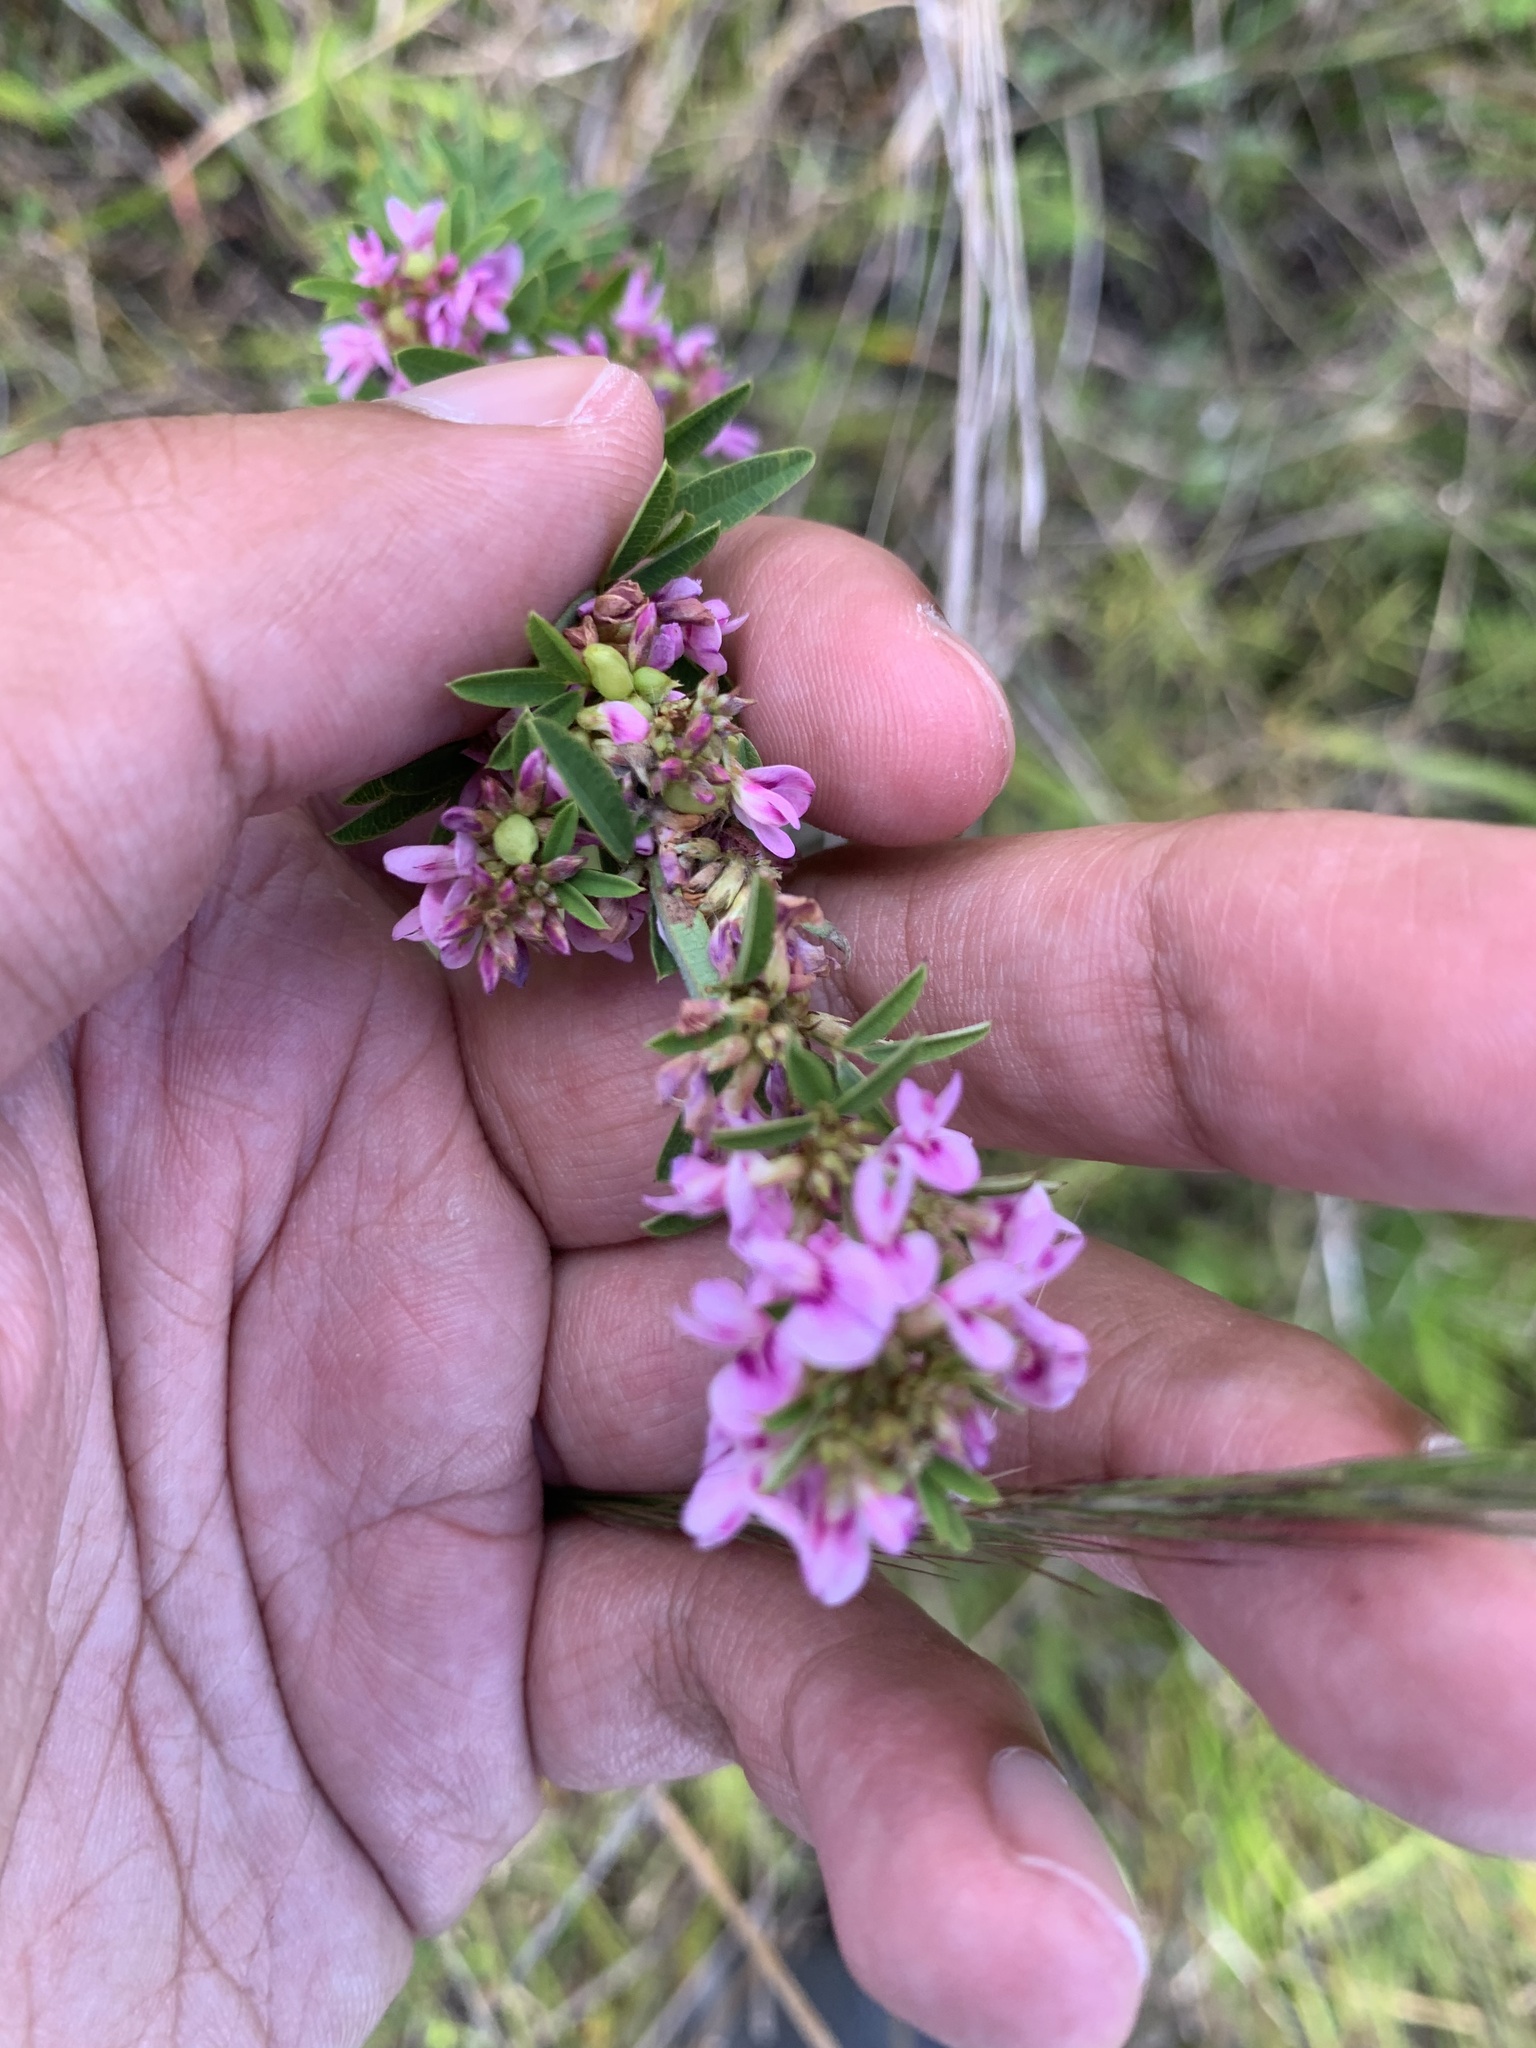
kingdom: Plantae
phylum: Tracheophyta
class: Magnoliopsida
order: Fabales
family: Fabaceae
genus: Lespedeza
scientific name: Lespedeza virginica
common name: Slender bush-clover
